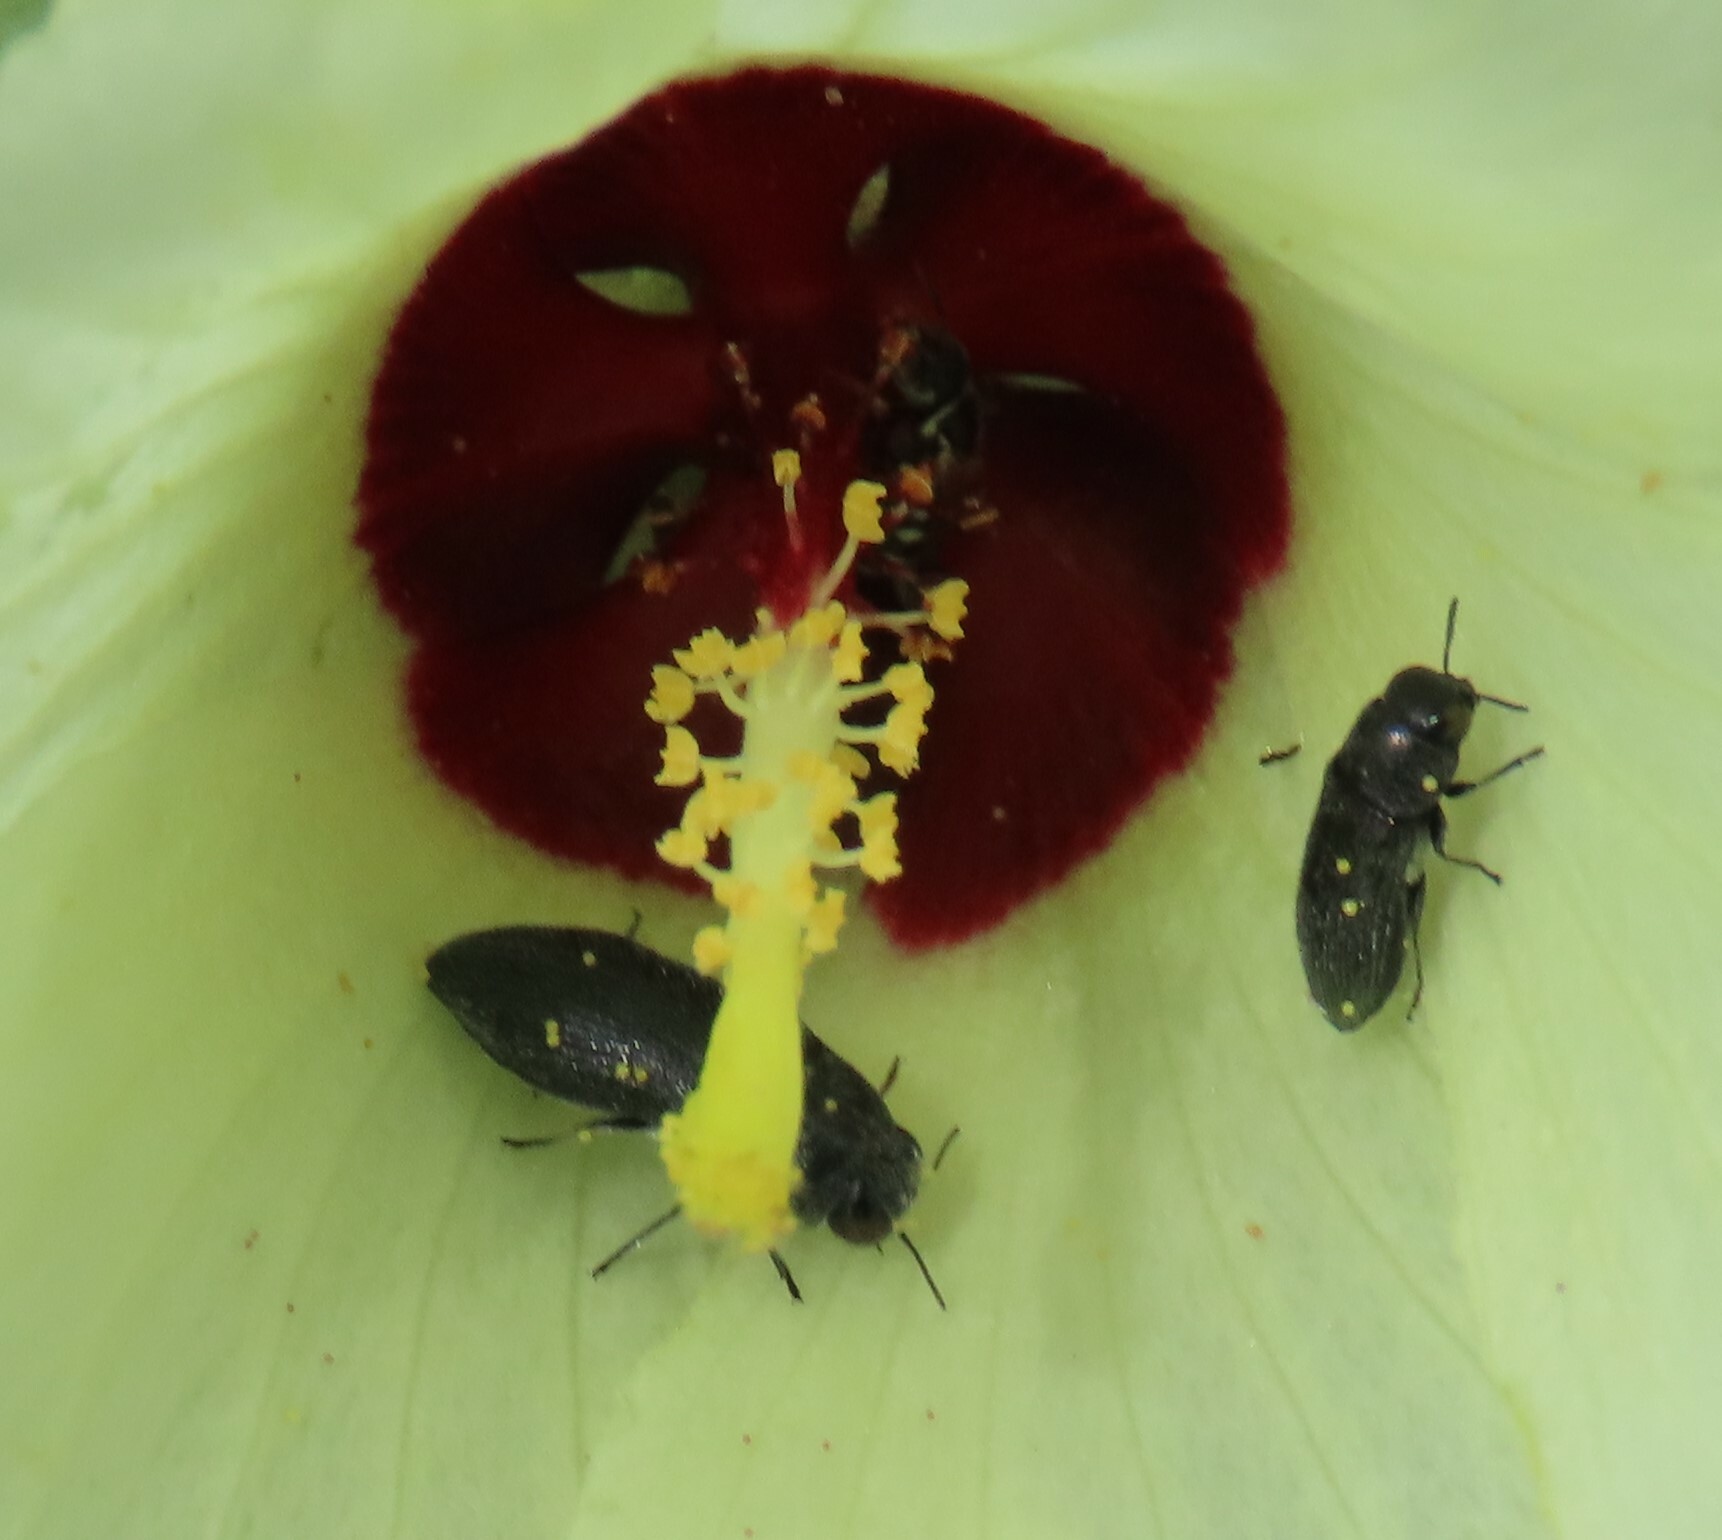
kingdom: Animalia
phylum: Arthropoda
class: Insecta
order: Coleoptera
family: Buprestidae
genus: Acmaeodera
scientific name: Acmaeodera lugubrina
